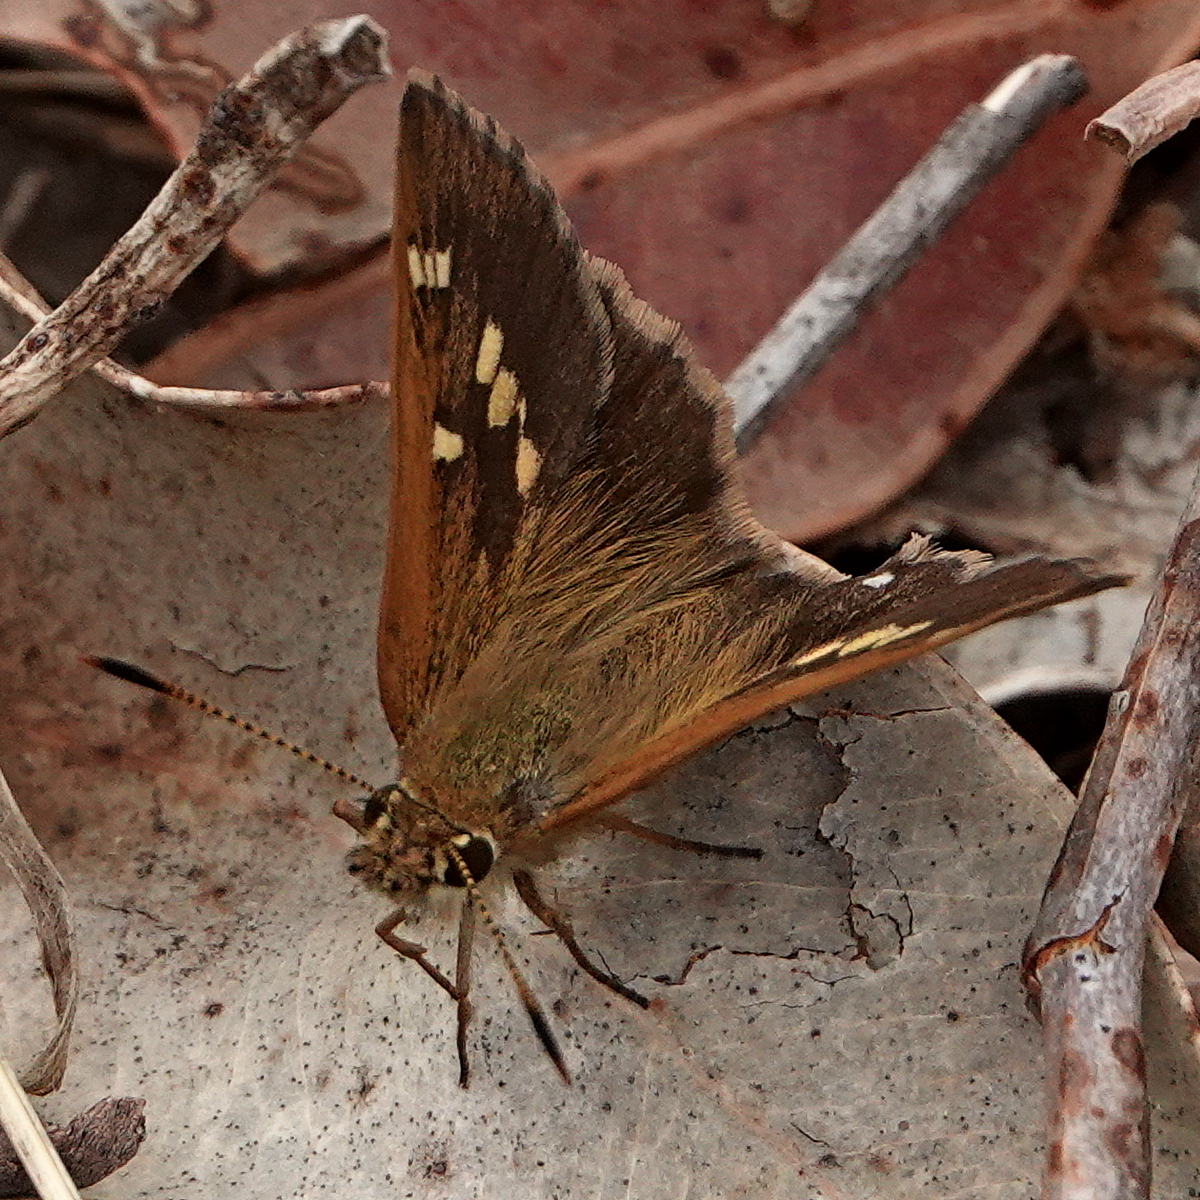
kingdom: Animalia
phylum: Arthropoda
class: Insecta
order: Lepidoptera
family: Hesperiidae
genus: Toxidia
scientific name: Toxidia parvulus
